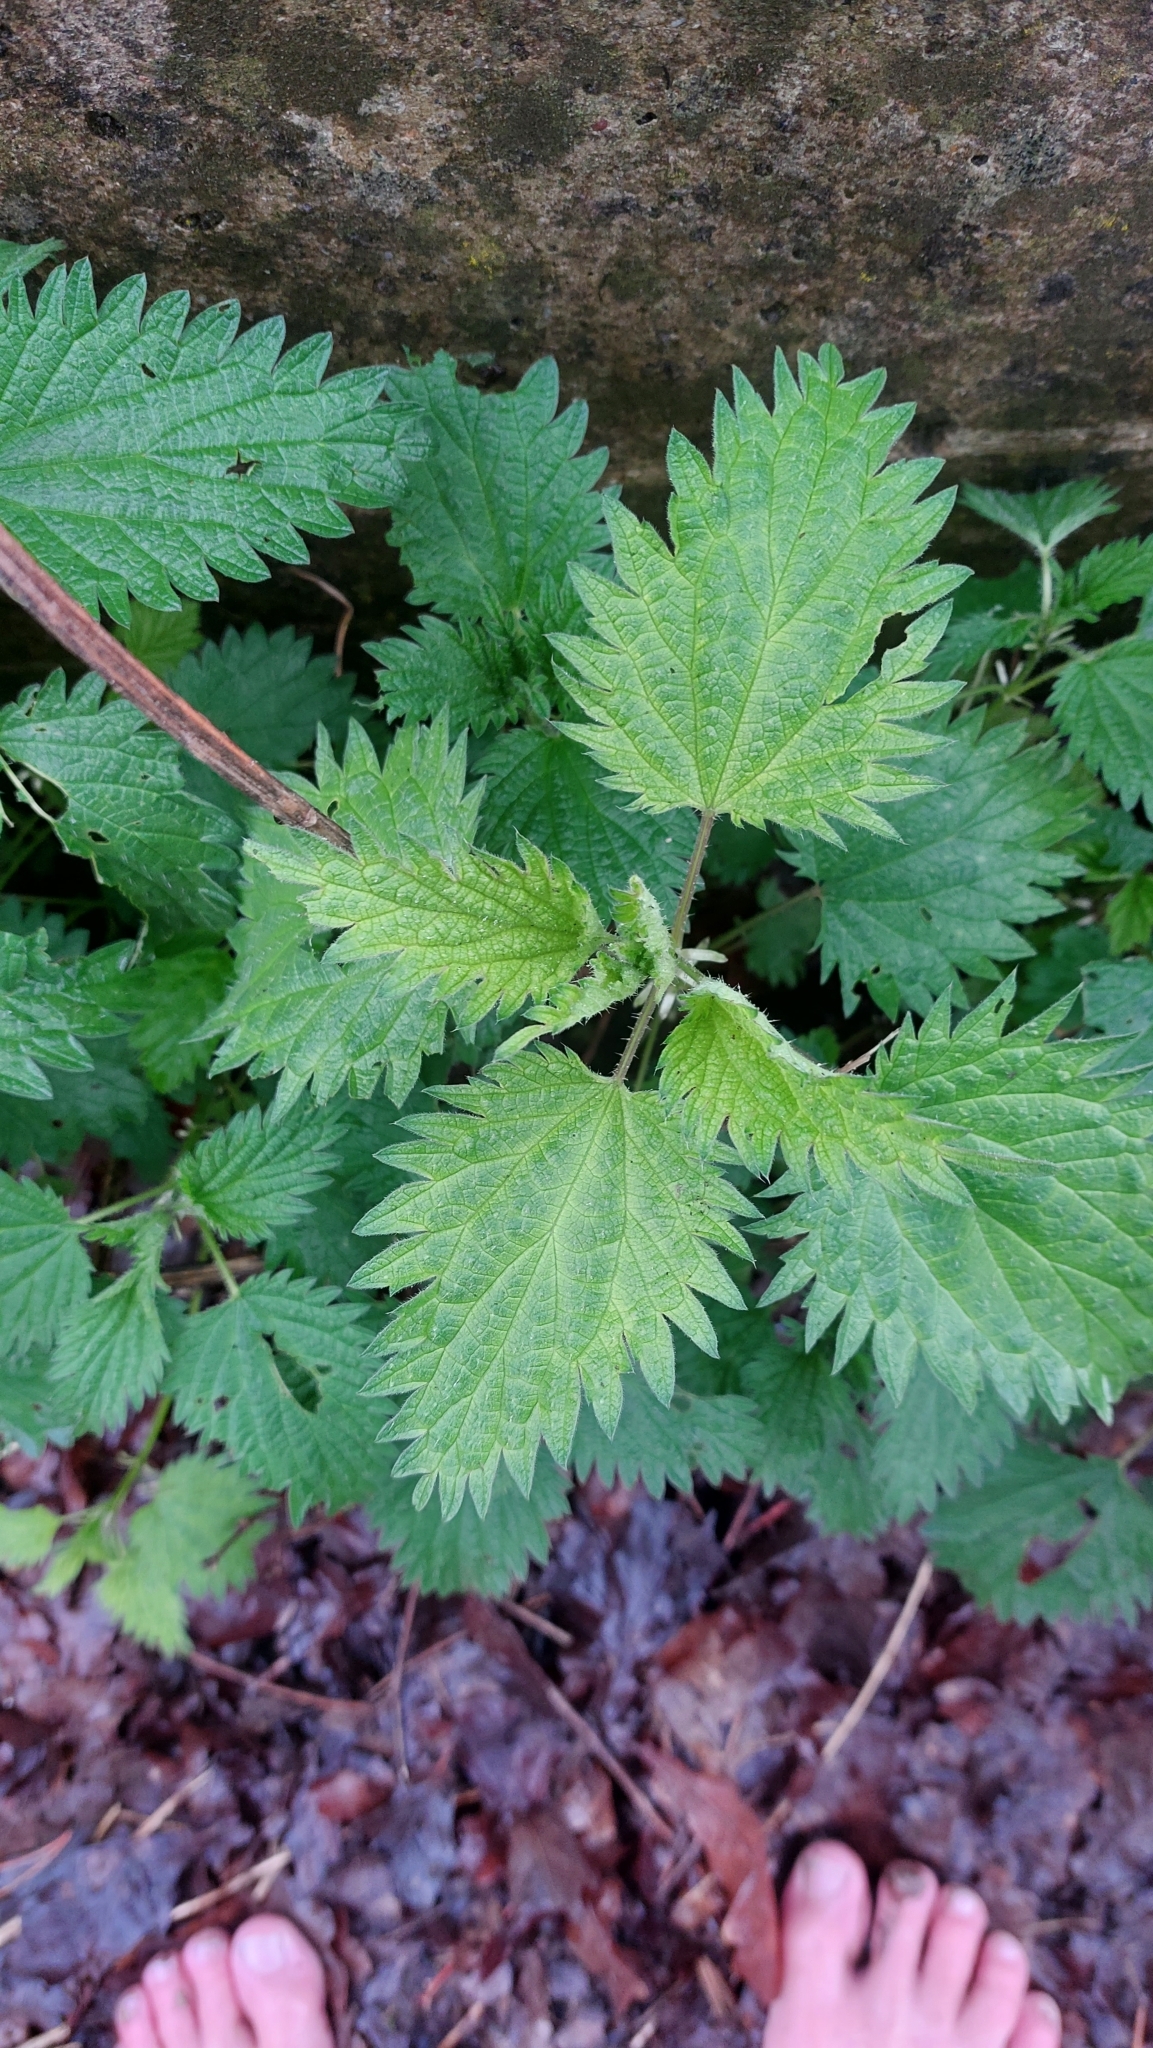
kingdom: Plantae
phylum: Tracheophyta
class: Magnoliopsida
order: Rosales
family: Urticaceae
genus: Urtica
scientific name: Urtica dioica
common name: Common nettle
